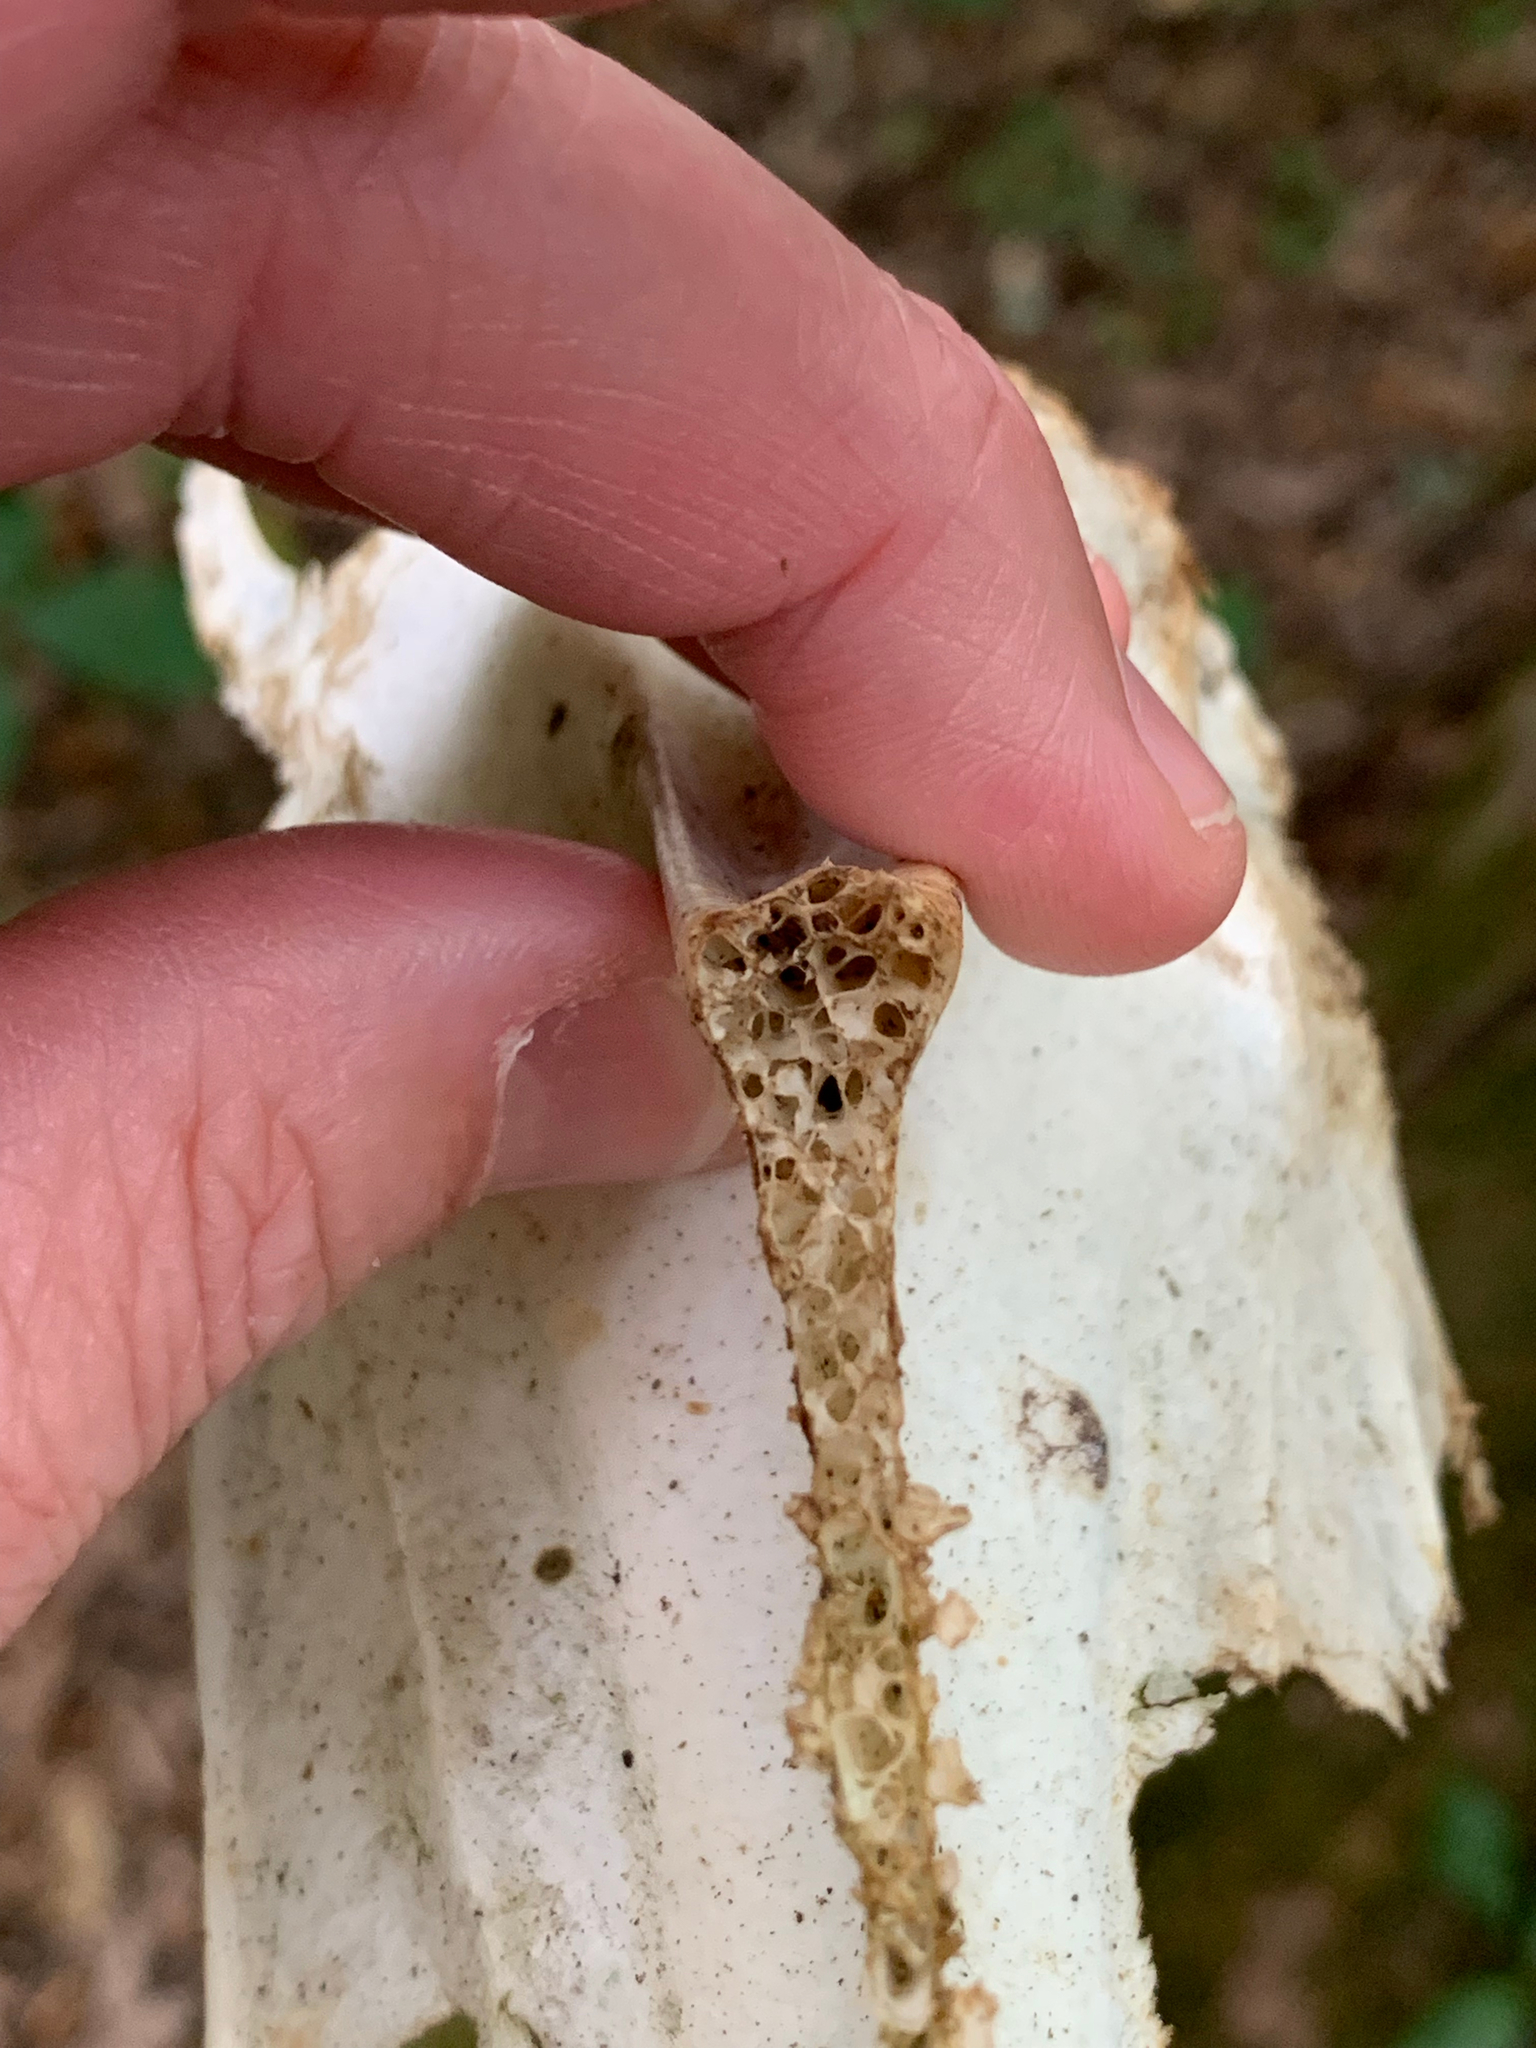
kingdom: Animalia
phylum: Chordata
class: Aves
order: Galliformes
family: Phasianidae
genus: Meleagris
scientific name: Meleagris gallopavo
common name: Wild turkey
